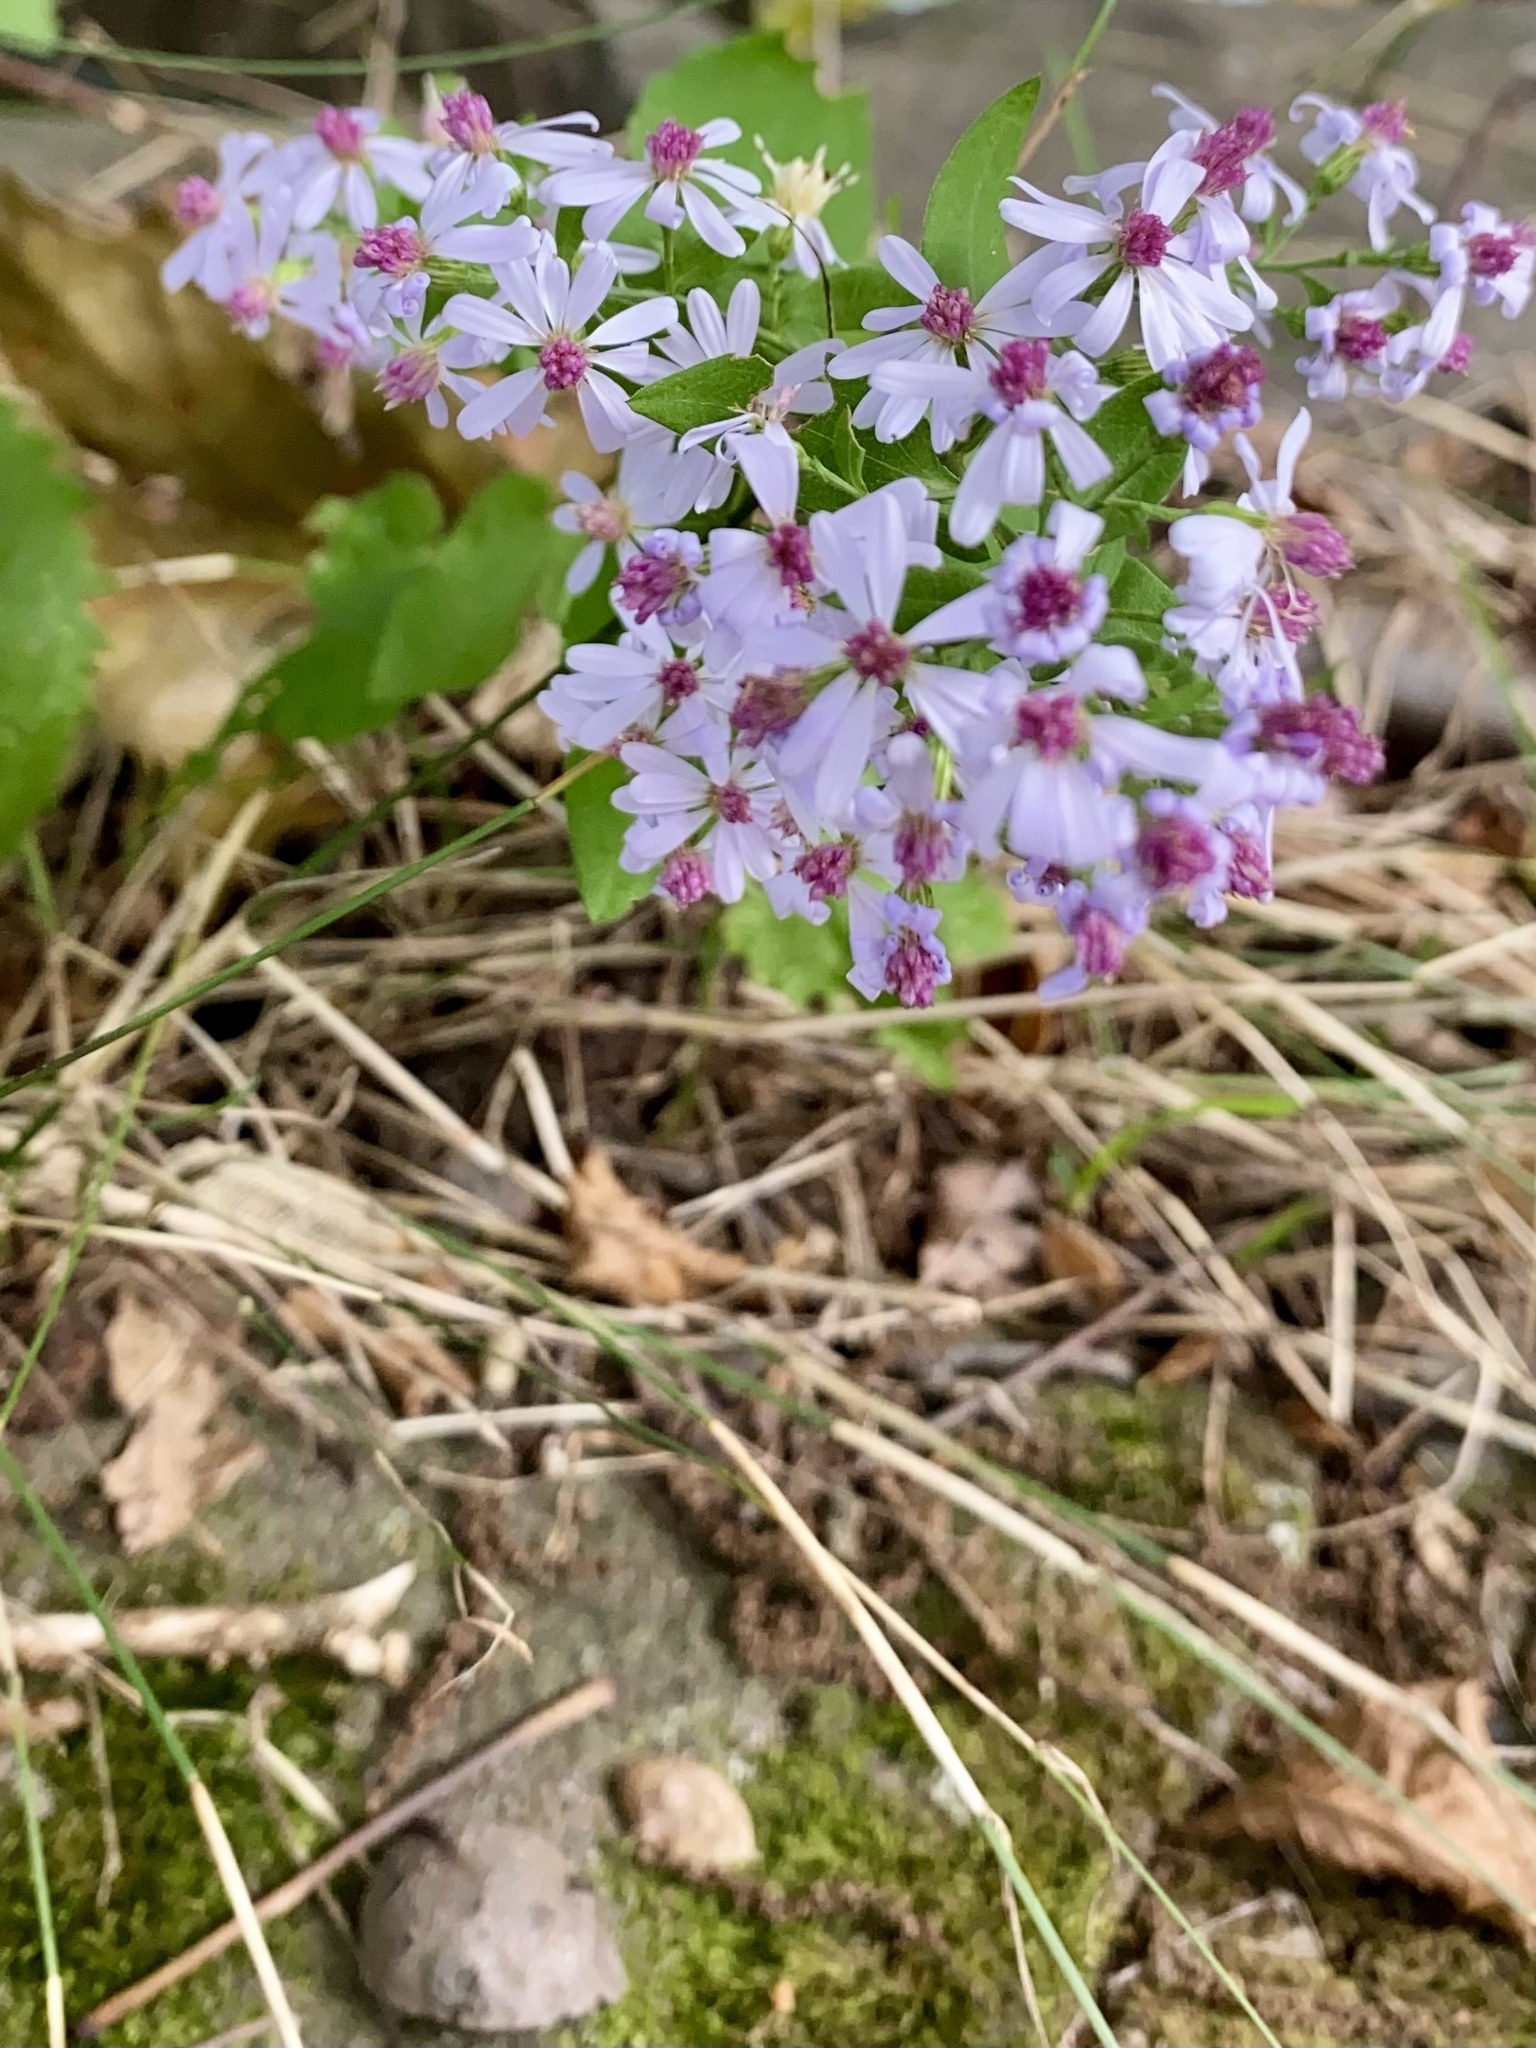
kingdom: Plantae
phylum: Tracheophyta
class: Magnoliopsida
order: Asterales
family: Asteraceae
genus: Symphyotrichum
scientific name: Symphyotrichum cordifolium
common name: Beeweed
